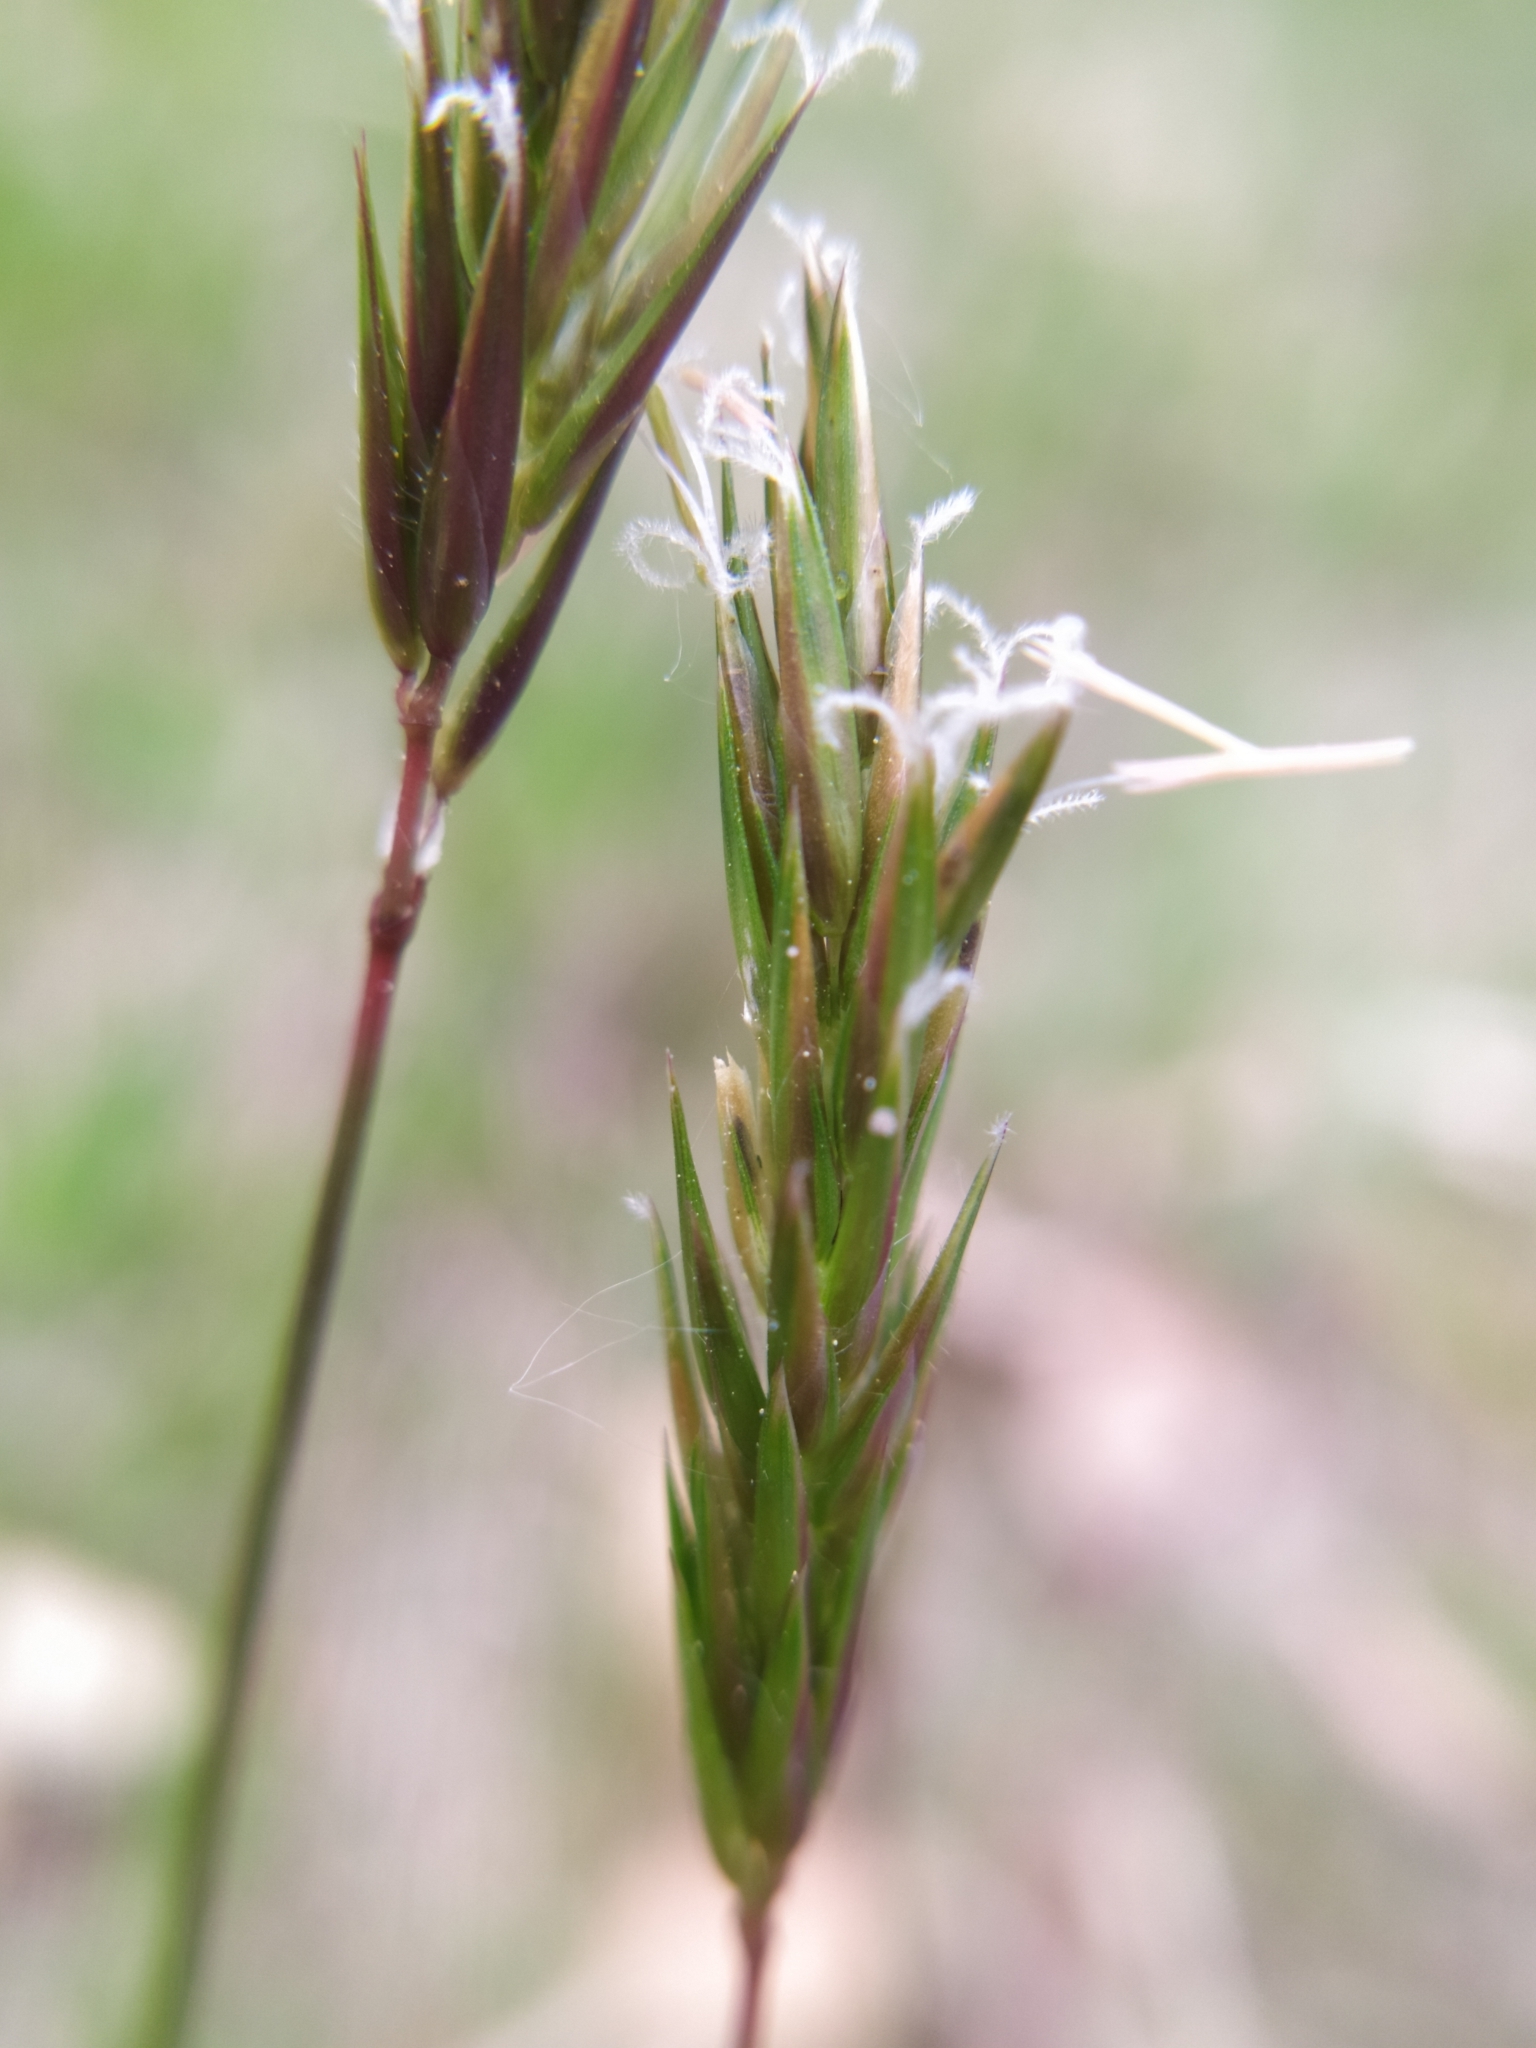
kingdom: Plantae
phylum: Tracheophyta
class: Liliopsida
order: Poales
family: Poaceae
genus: Anthoxanthum
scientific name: Anthoxanthum odoratum
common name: Sweet vernalgrass
